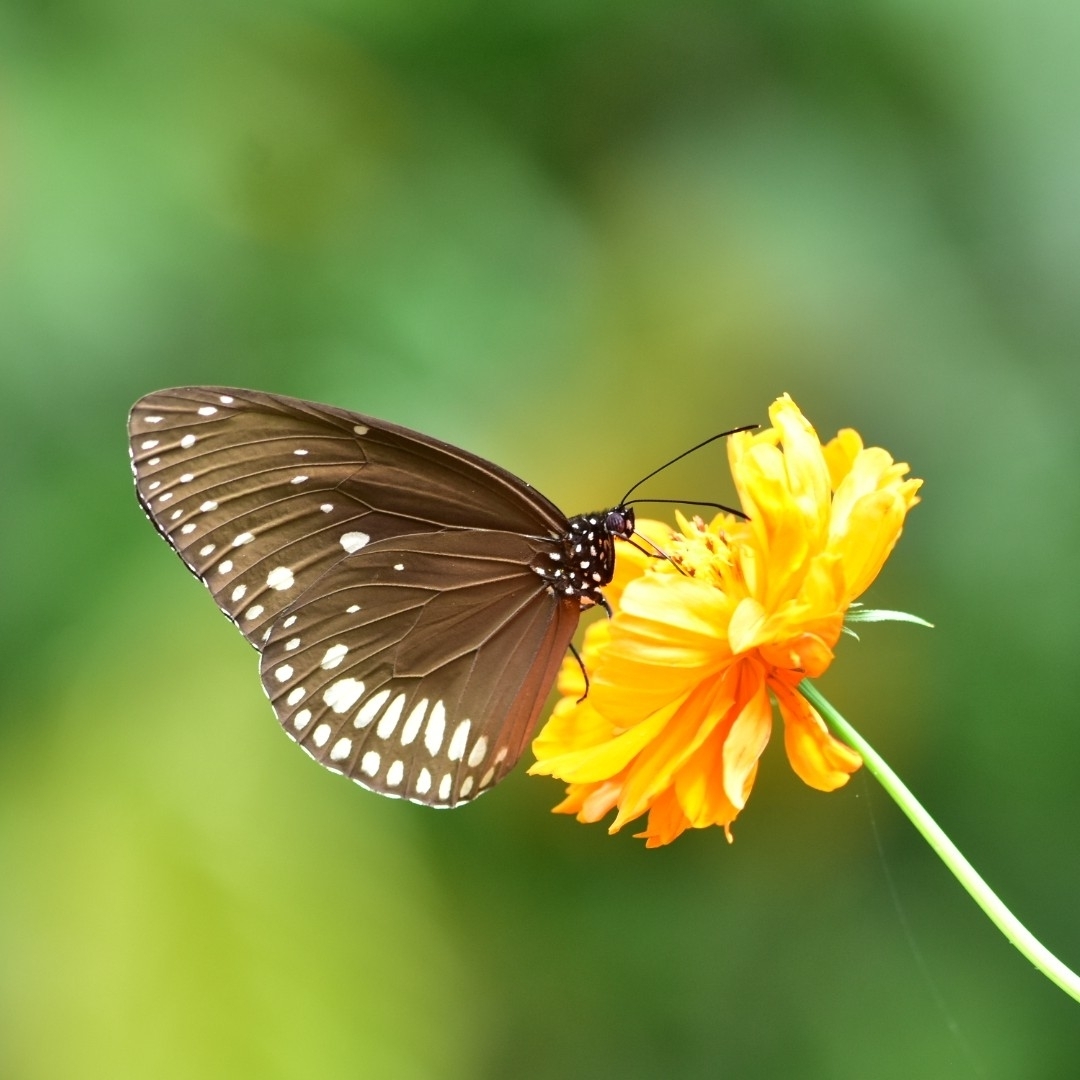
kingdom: Animalia
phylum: Arthropoda
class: Insecta
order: Lepidoptera
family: Nymphalidae
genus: Euploea
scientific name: Euploea klugii
